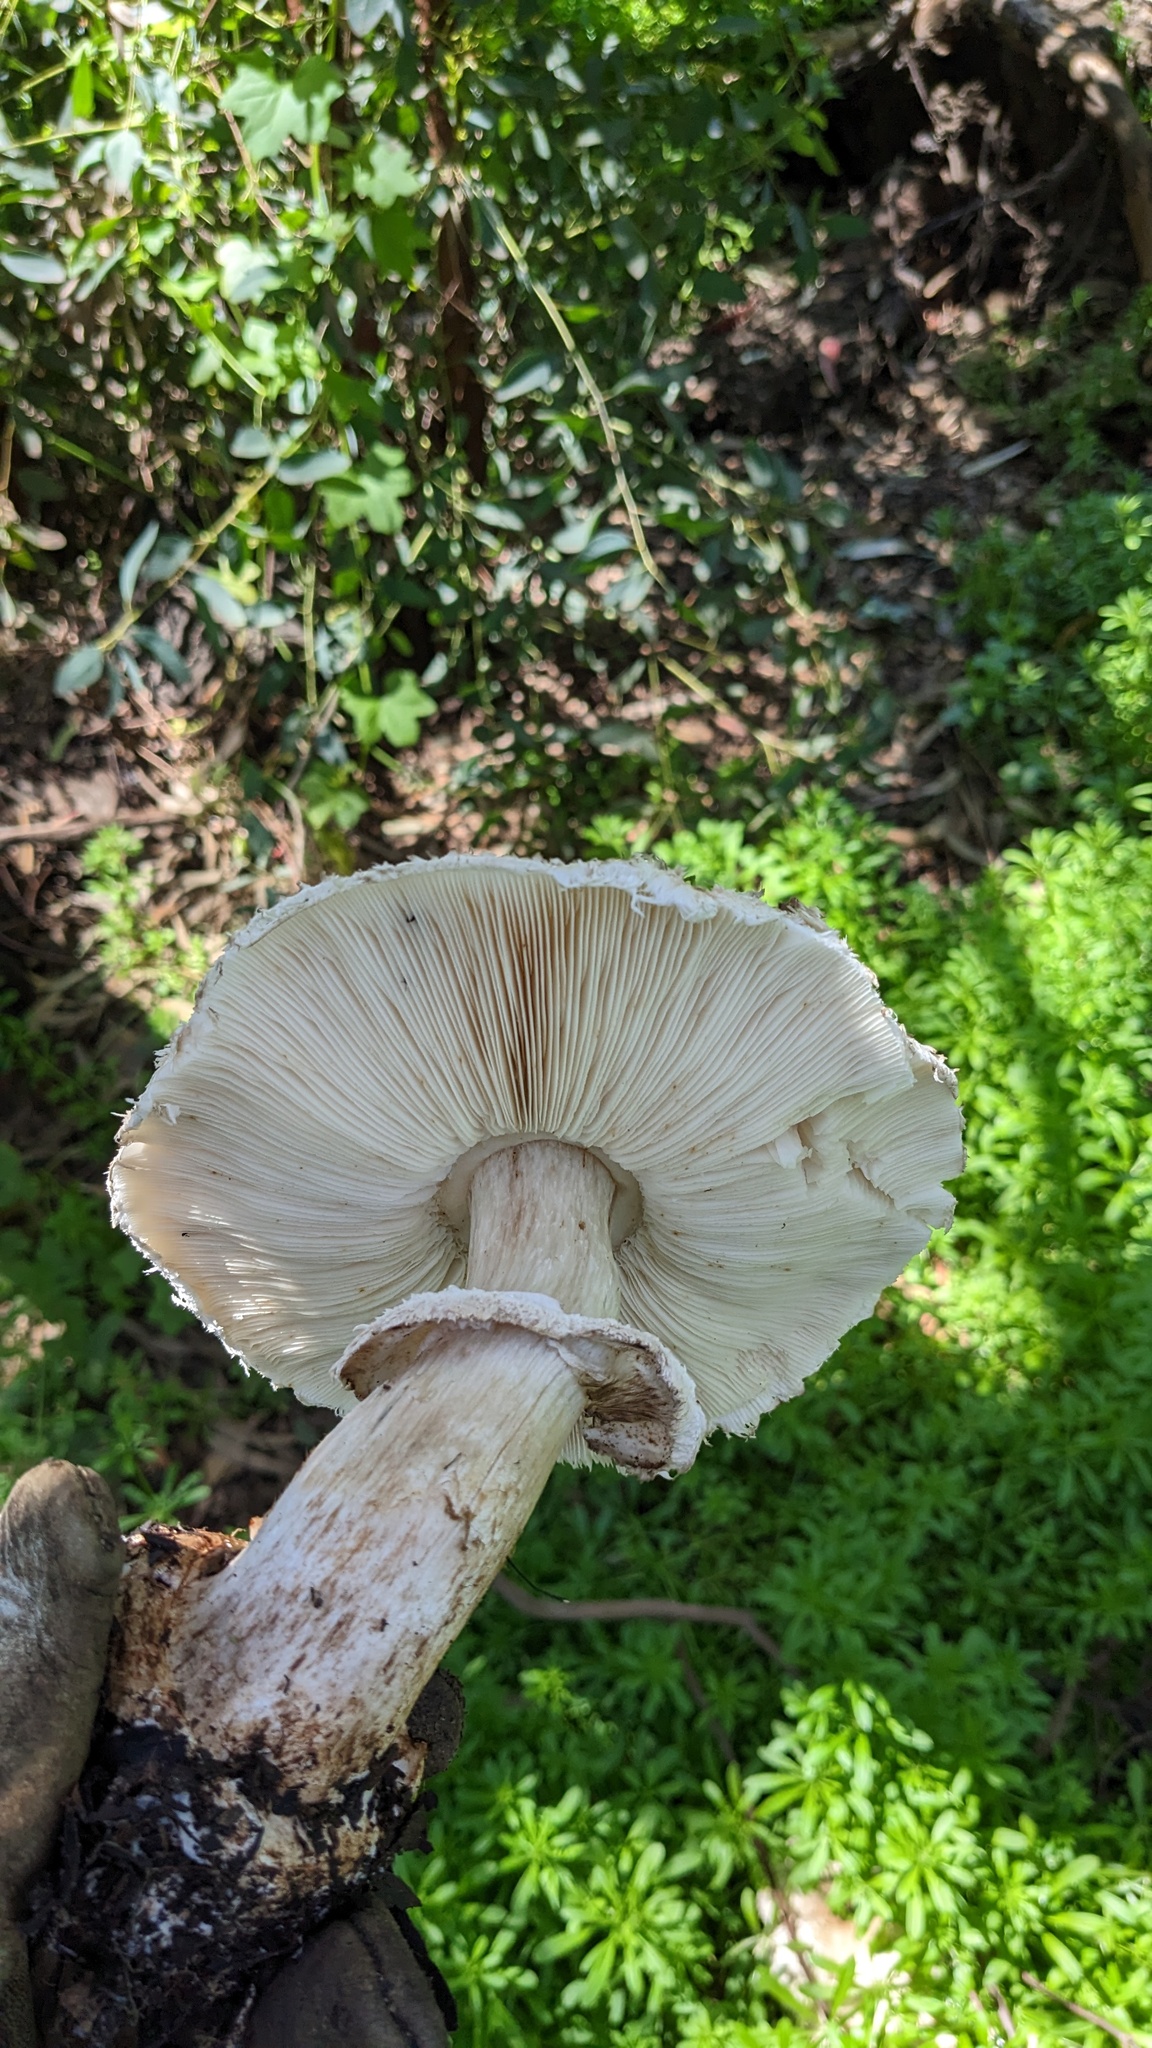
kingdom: Fungi
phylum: Basidiomycota
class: Agaricomycetes
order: Agaricales
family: Agaricaceae
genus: Chlorophyllum
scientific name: Chlorophyllum brunneum
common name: Brown parasol
